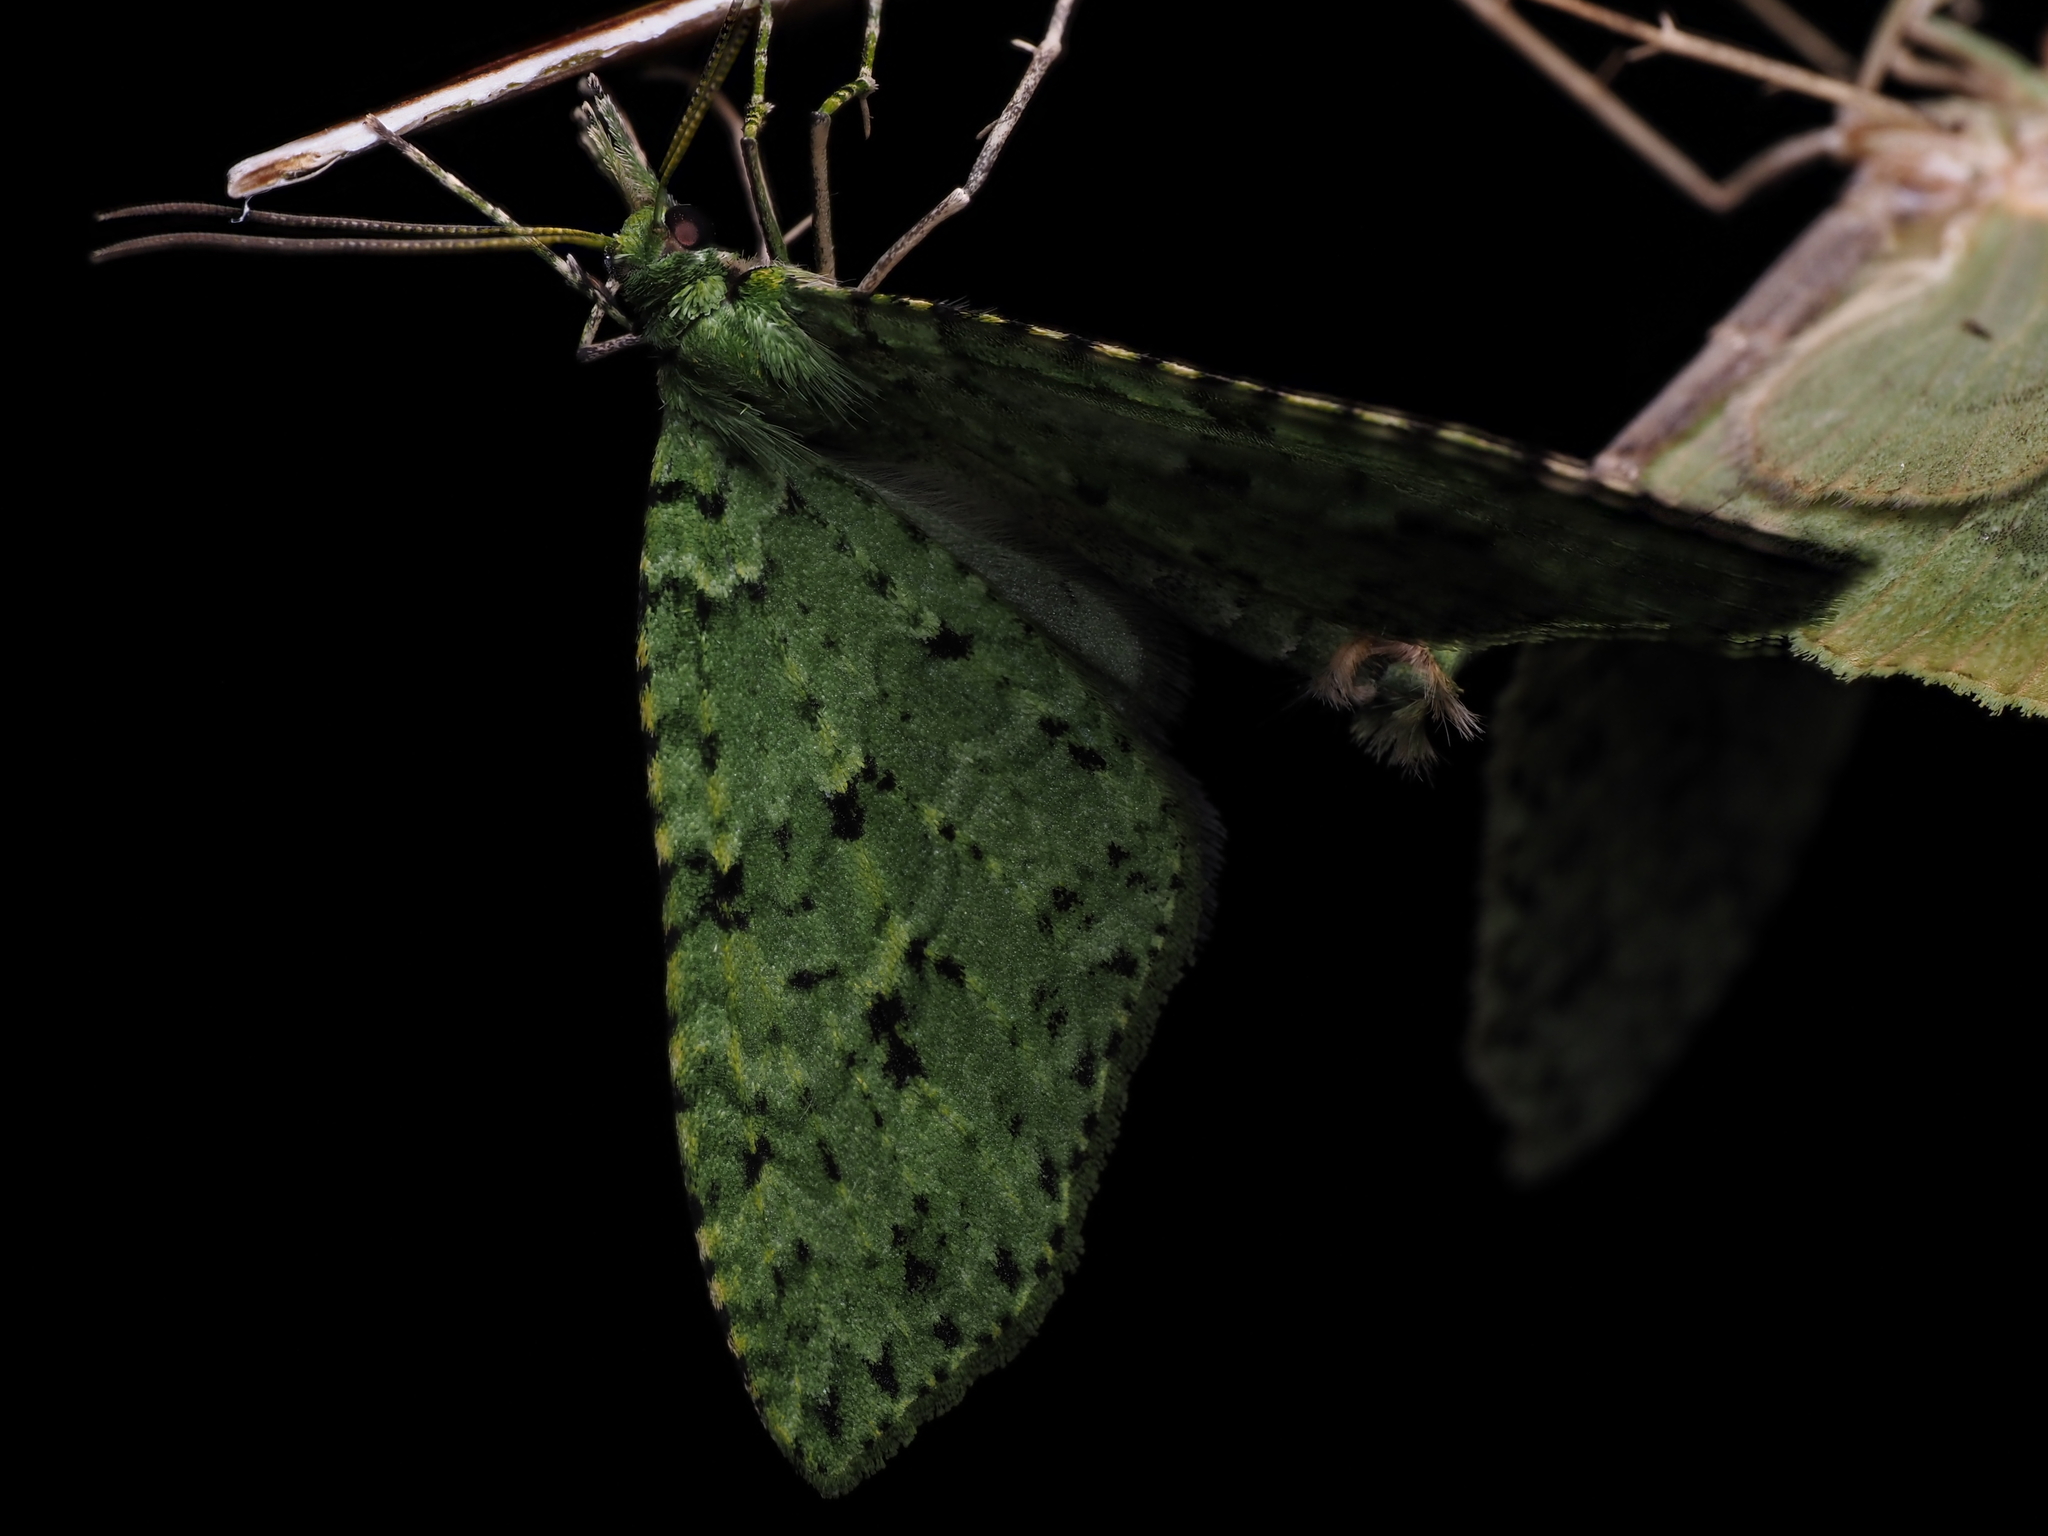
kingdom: Animalia
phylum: Arthropoda
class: Insecta
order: Lepidoptera
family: Geometridae
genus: Tatosoma
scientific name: Tatosoma tipulata
